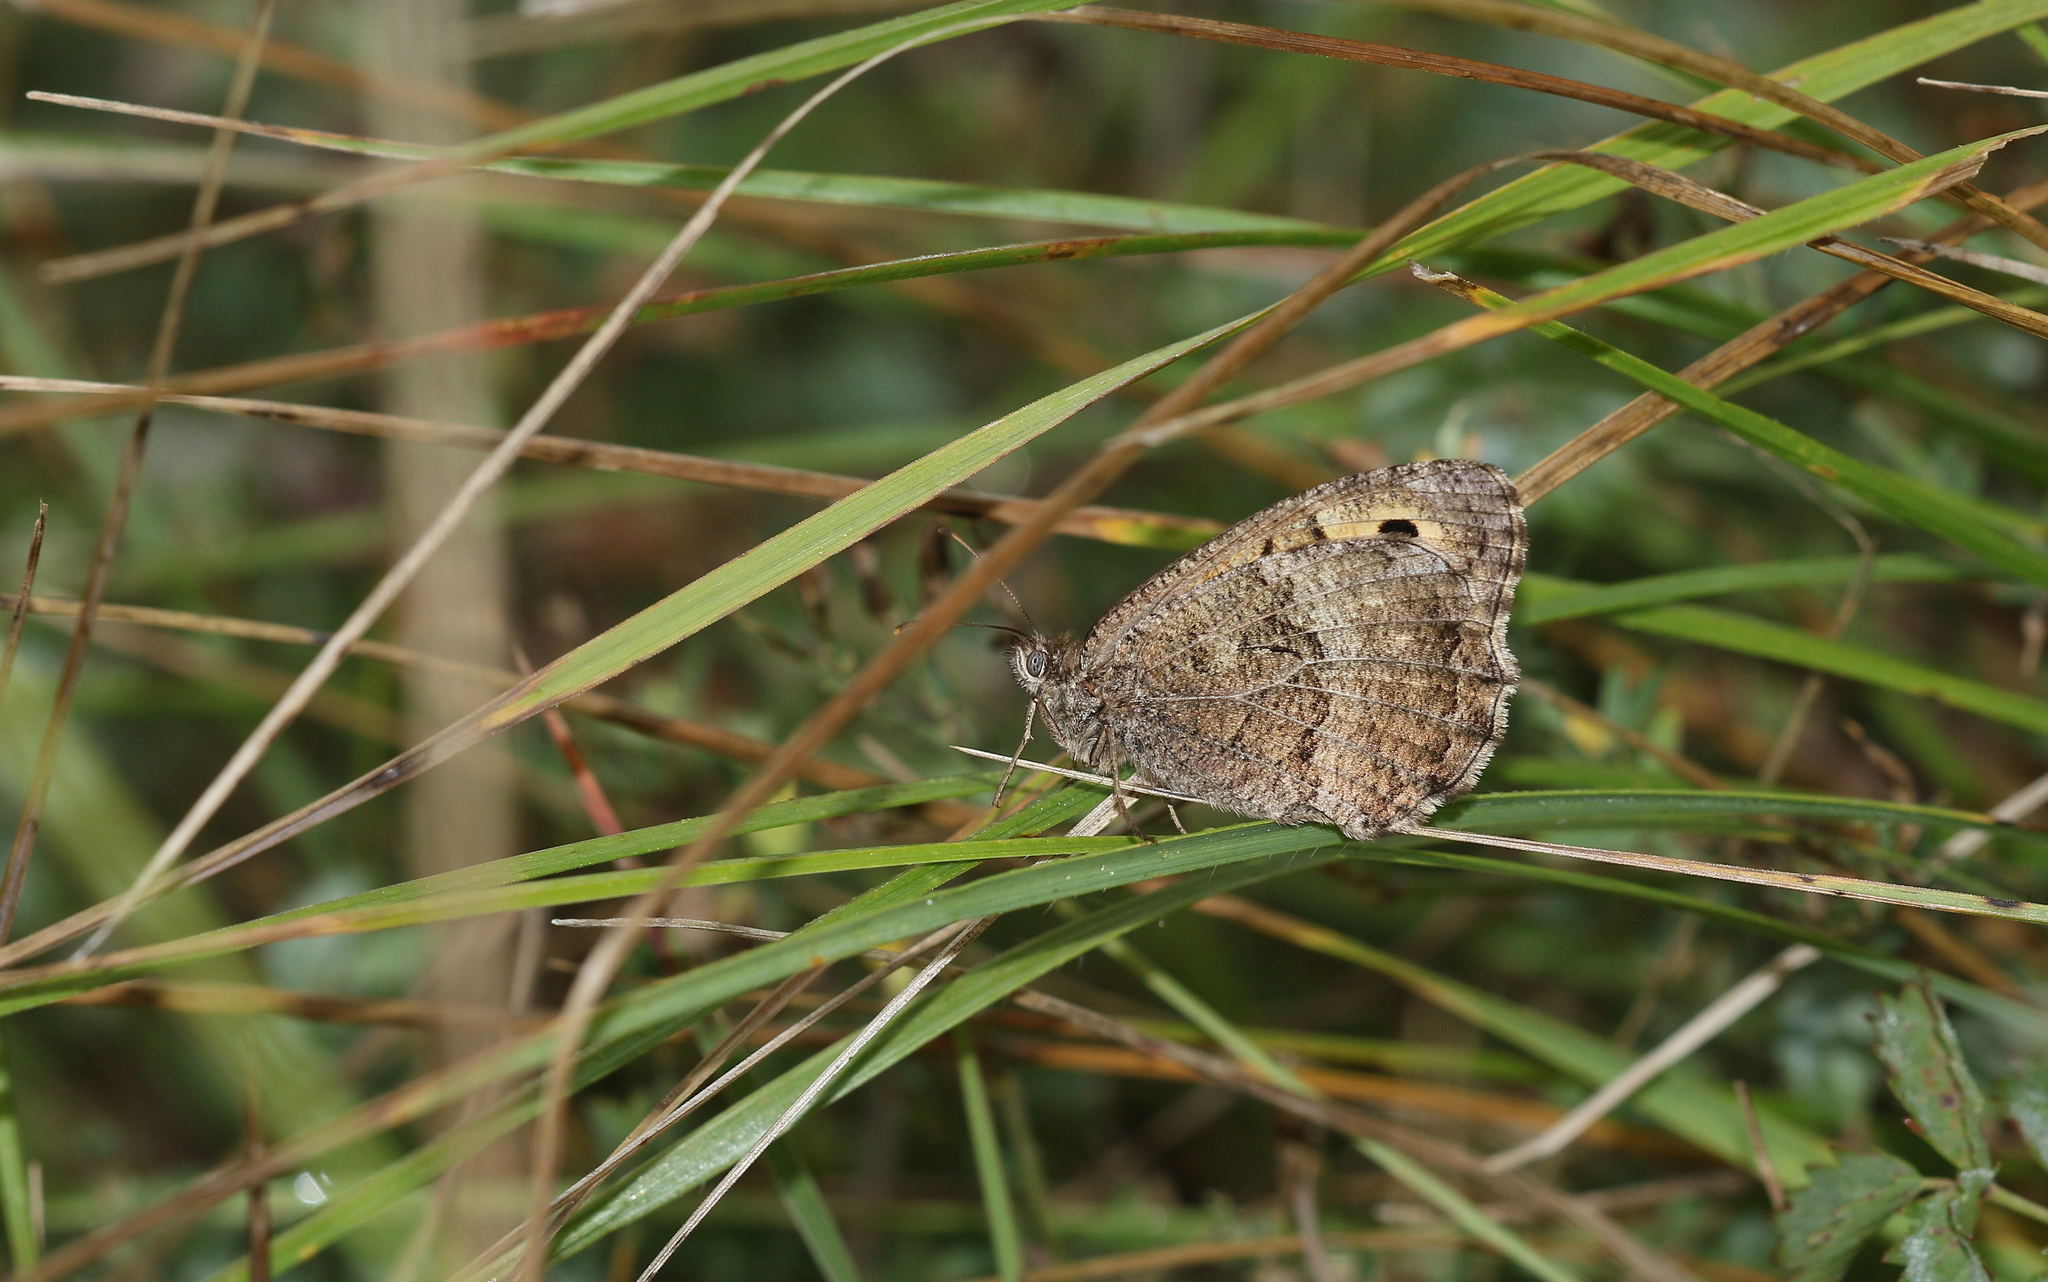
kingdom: Animalia
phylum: Arthropoda
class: Insecta
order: Lepidoptera
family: Nymphalidae
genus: Arethusana
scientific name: Arethusana arethusa
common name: False grayling
